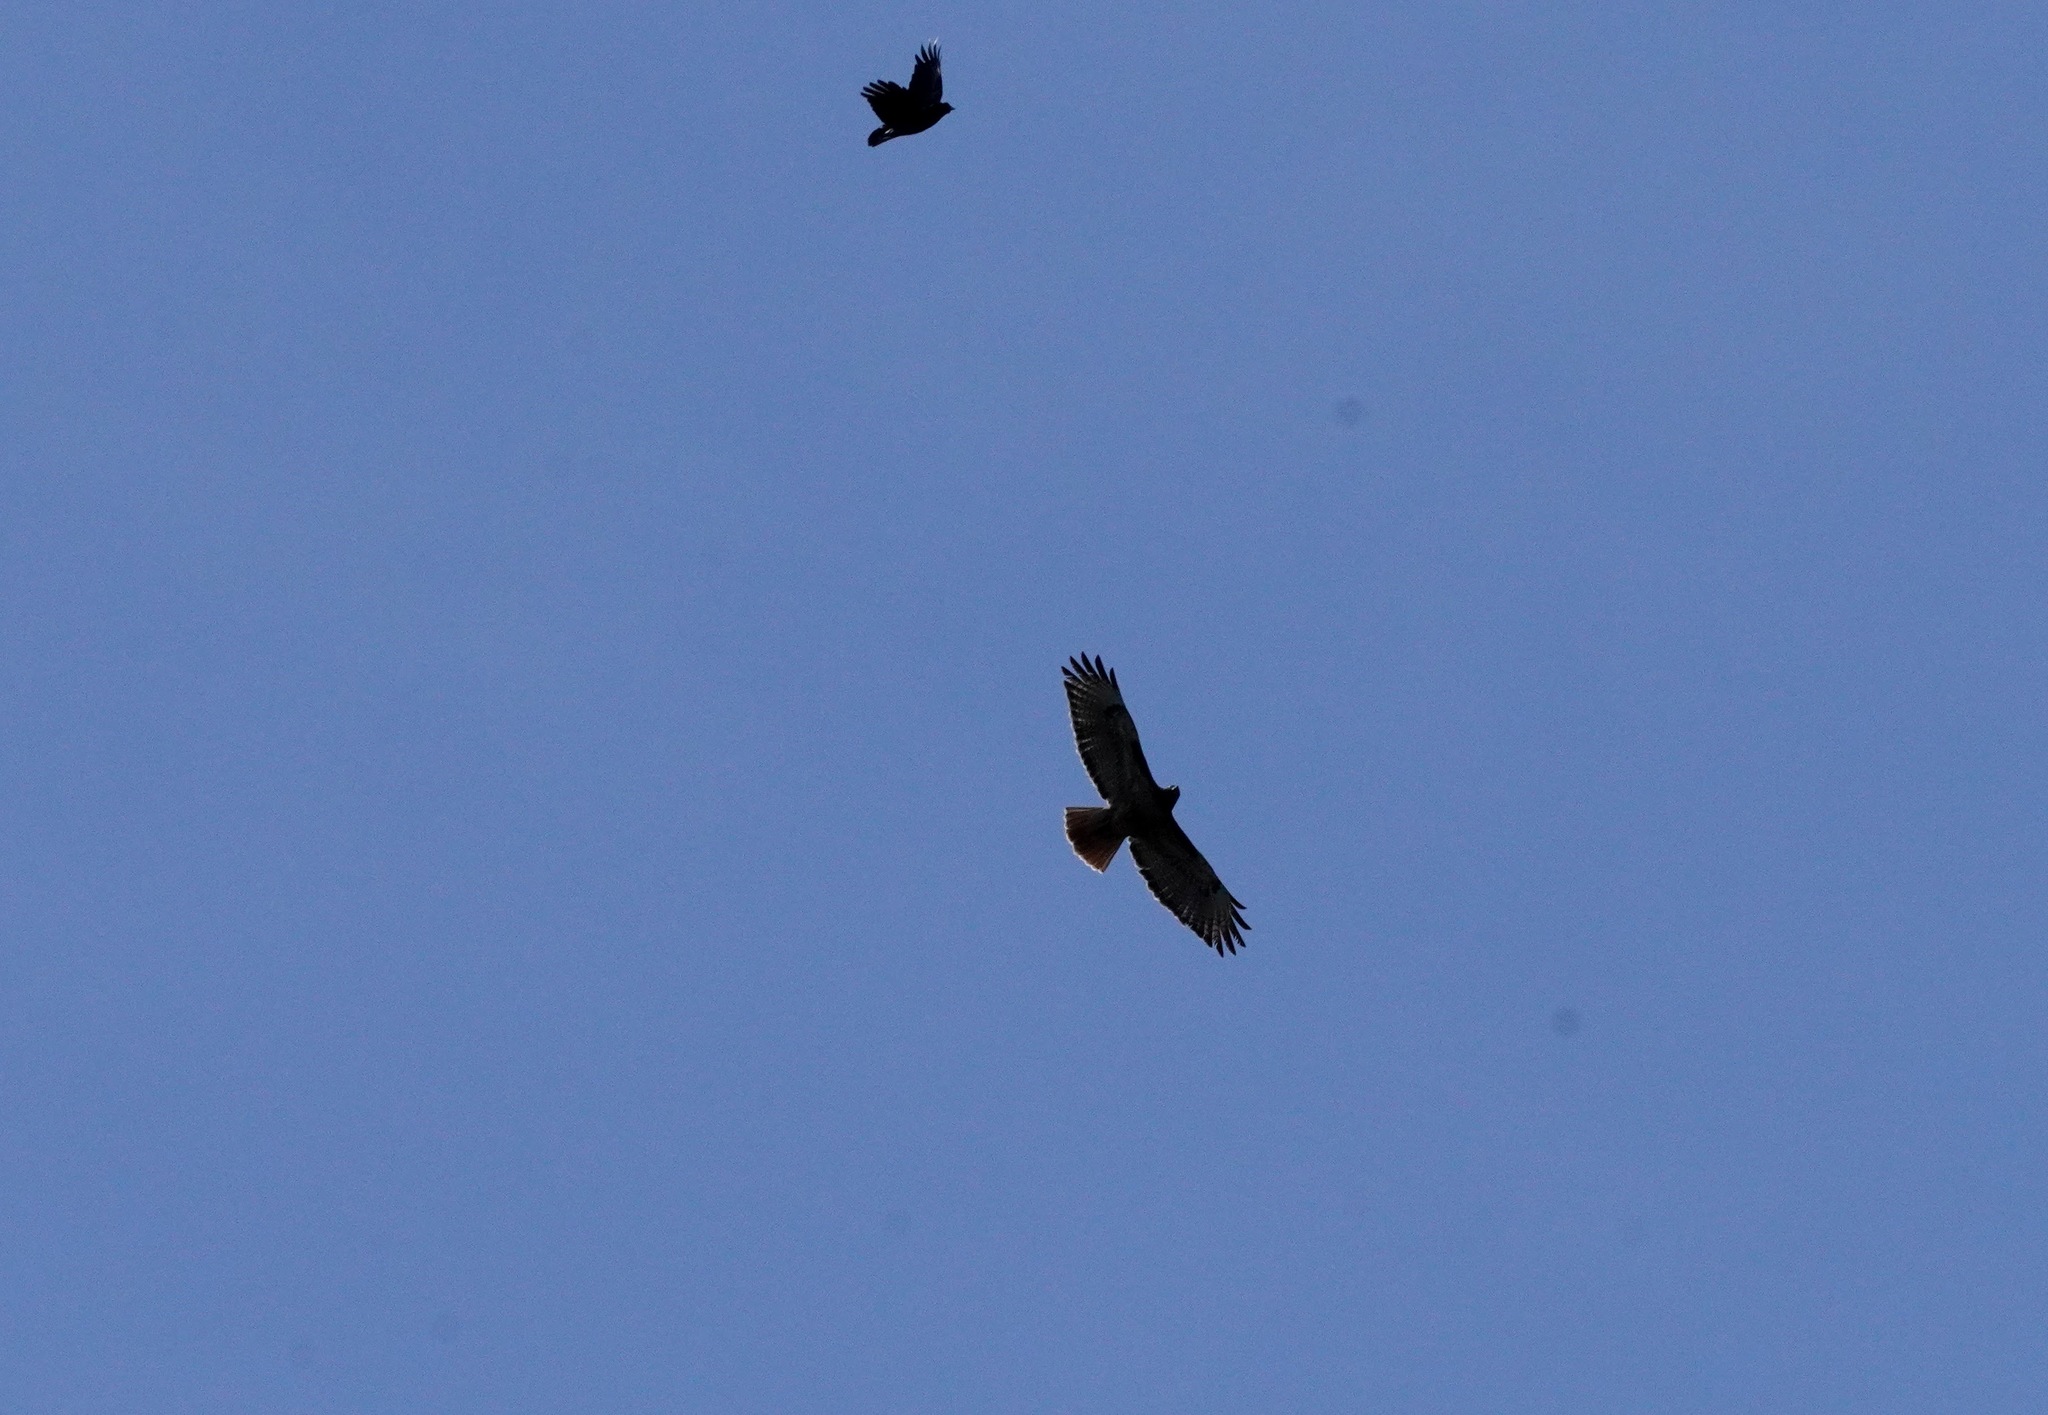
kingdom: Animalia
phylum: Chordata
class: Aves
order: Accipitriformes
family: Accipitridae
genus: Buteo
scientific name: Buteo jamaicensis
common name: Red-tailed hawk
